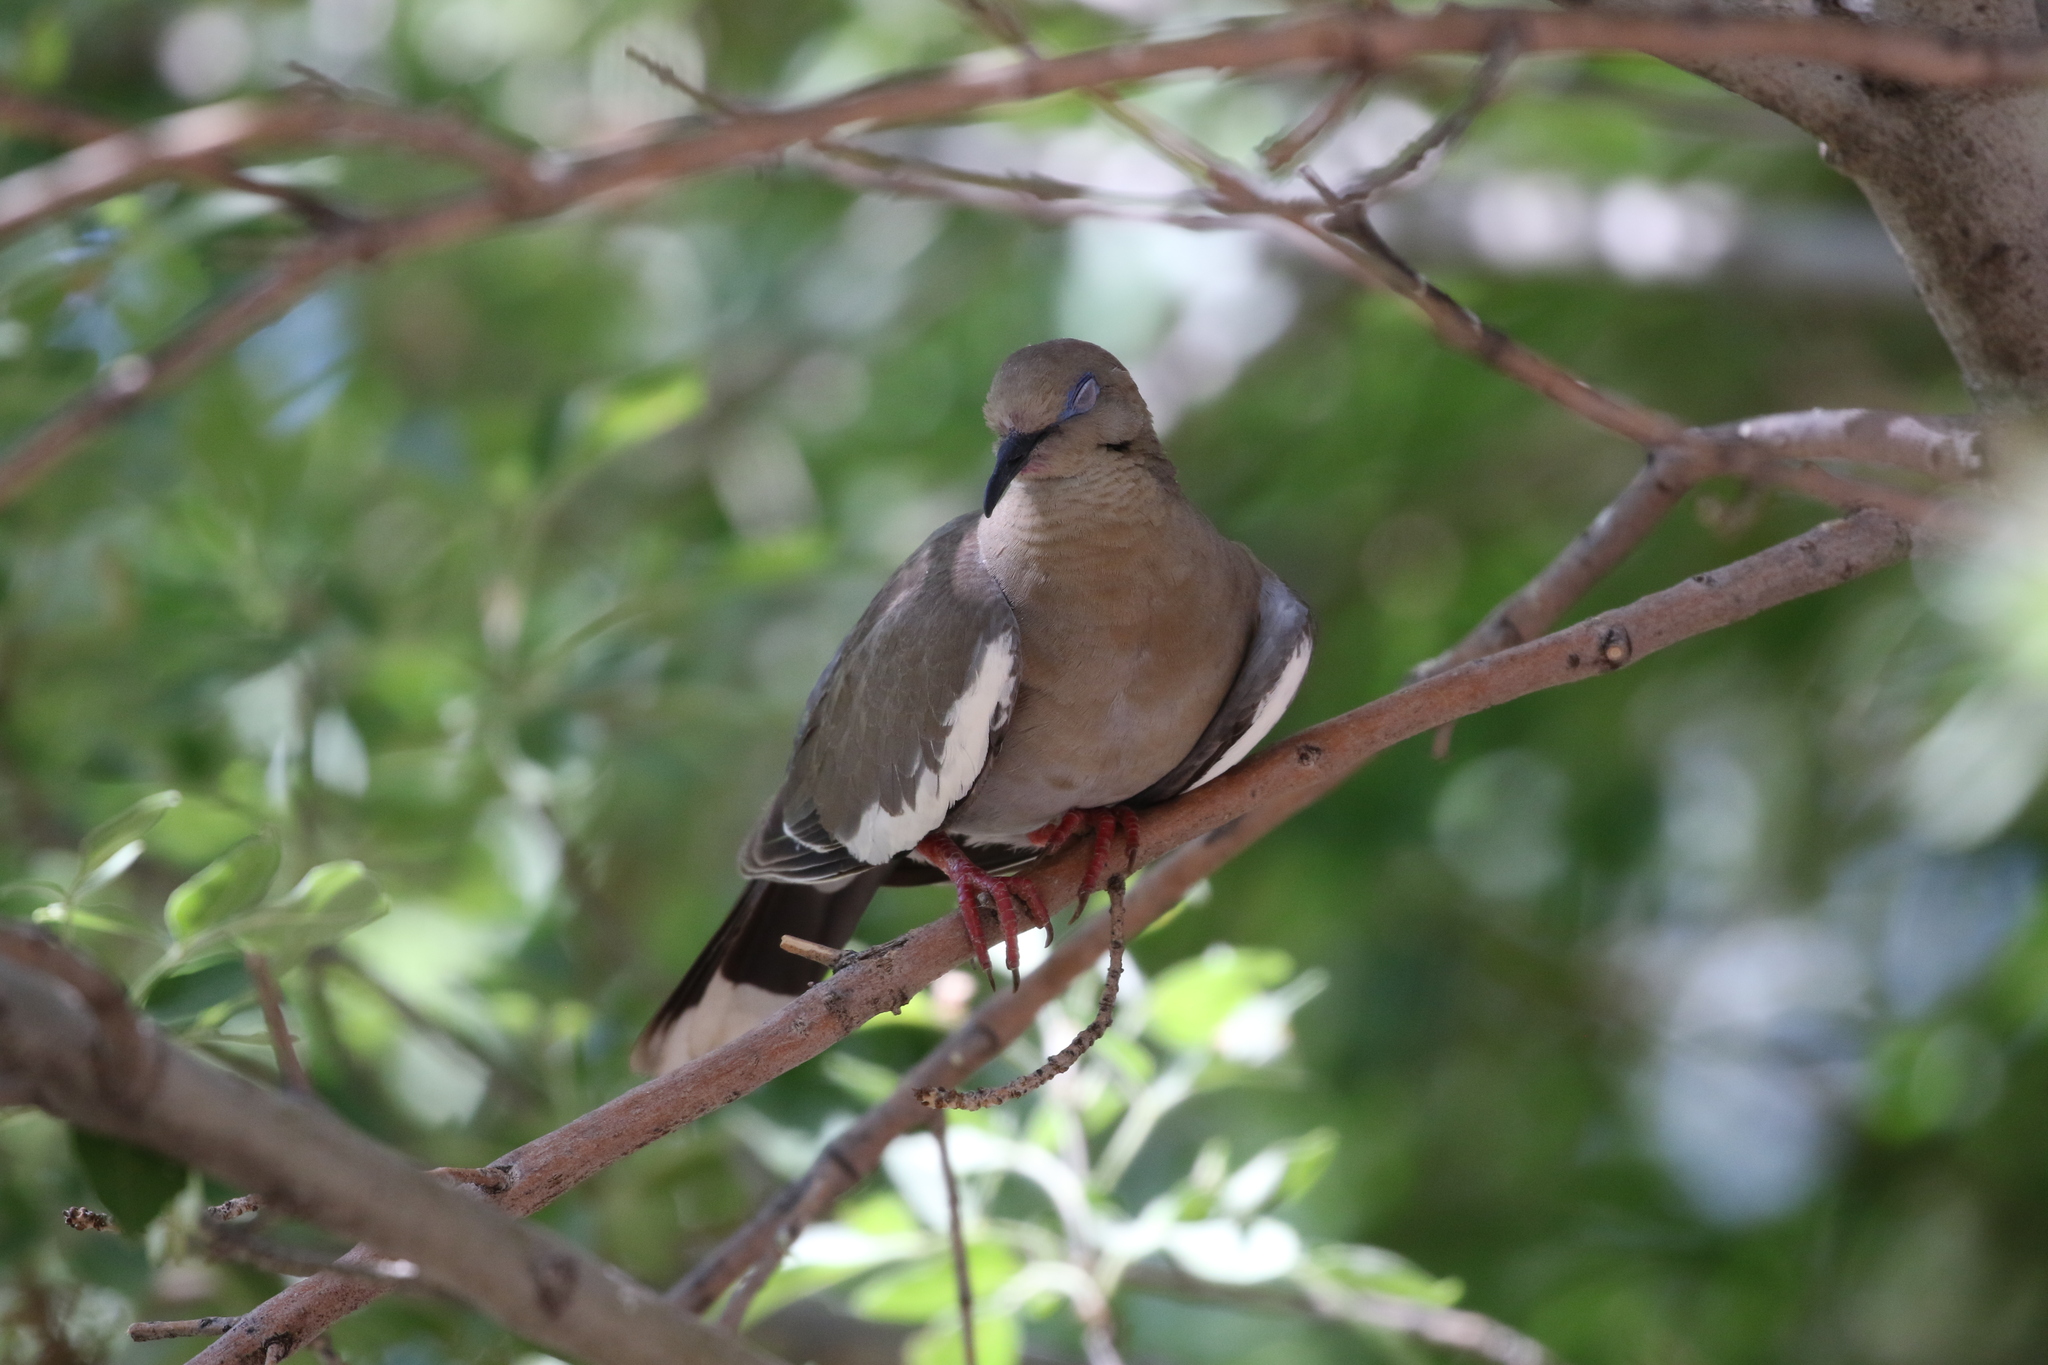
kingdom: Animalia
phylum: Chordata
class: Aves
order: Columbiformes
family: Columbidae
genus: Zenaida
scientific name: Zenaida asiatica
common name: White-winged dove
